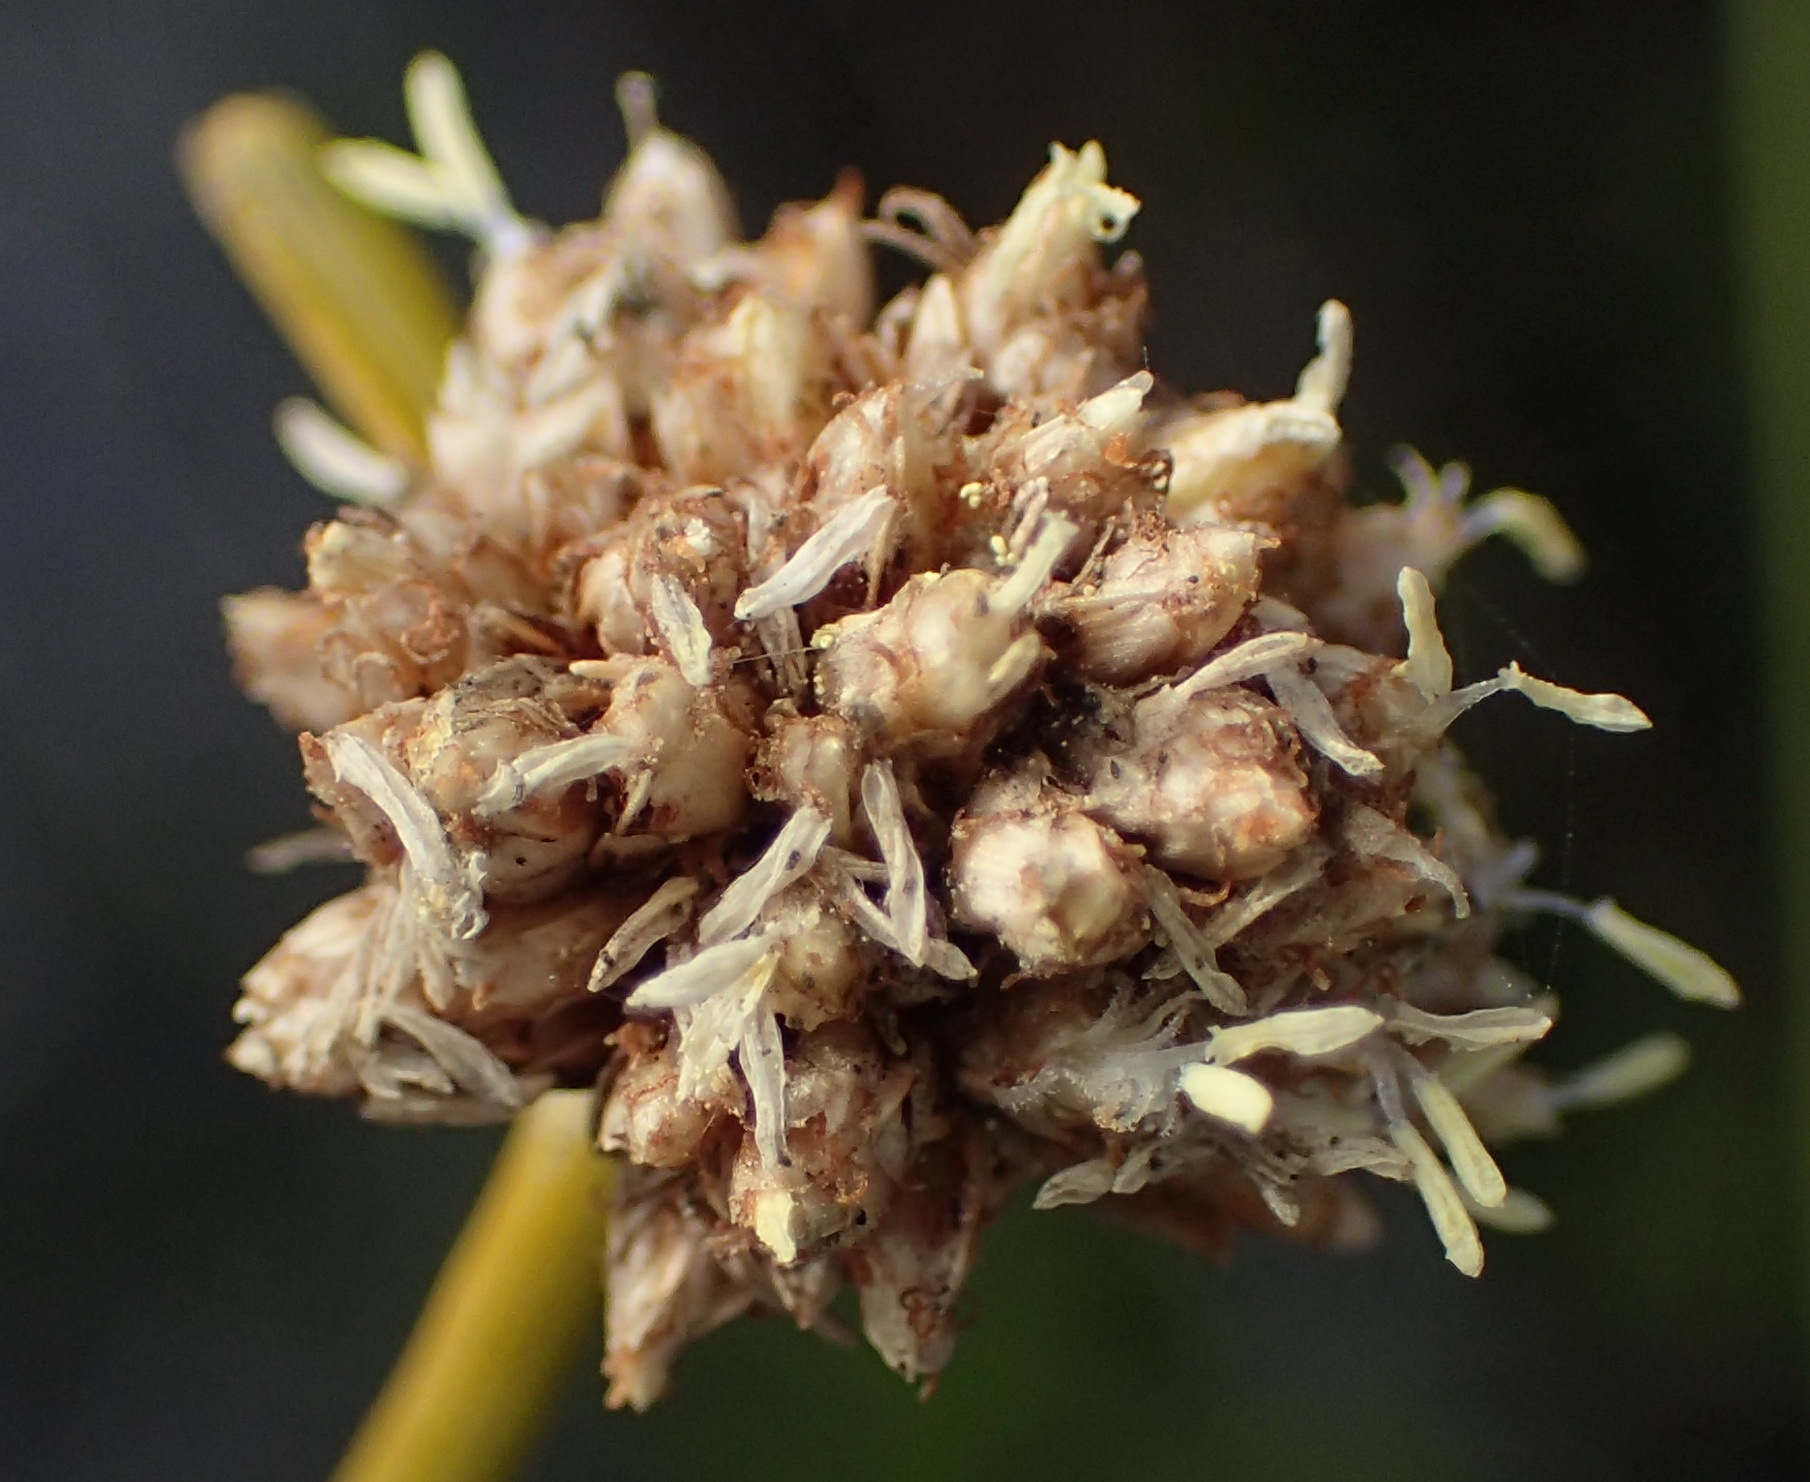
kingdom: Plantae
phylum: Tracheophyta
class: Liliopsida
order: Poales
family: Cyperaceae
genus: Ficinia
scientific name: Ficinia praemorsa
